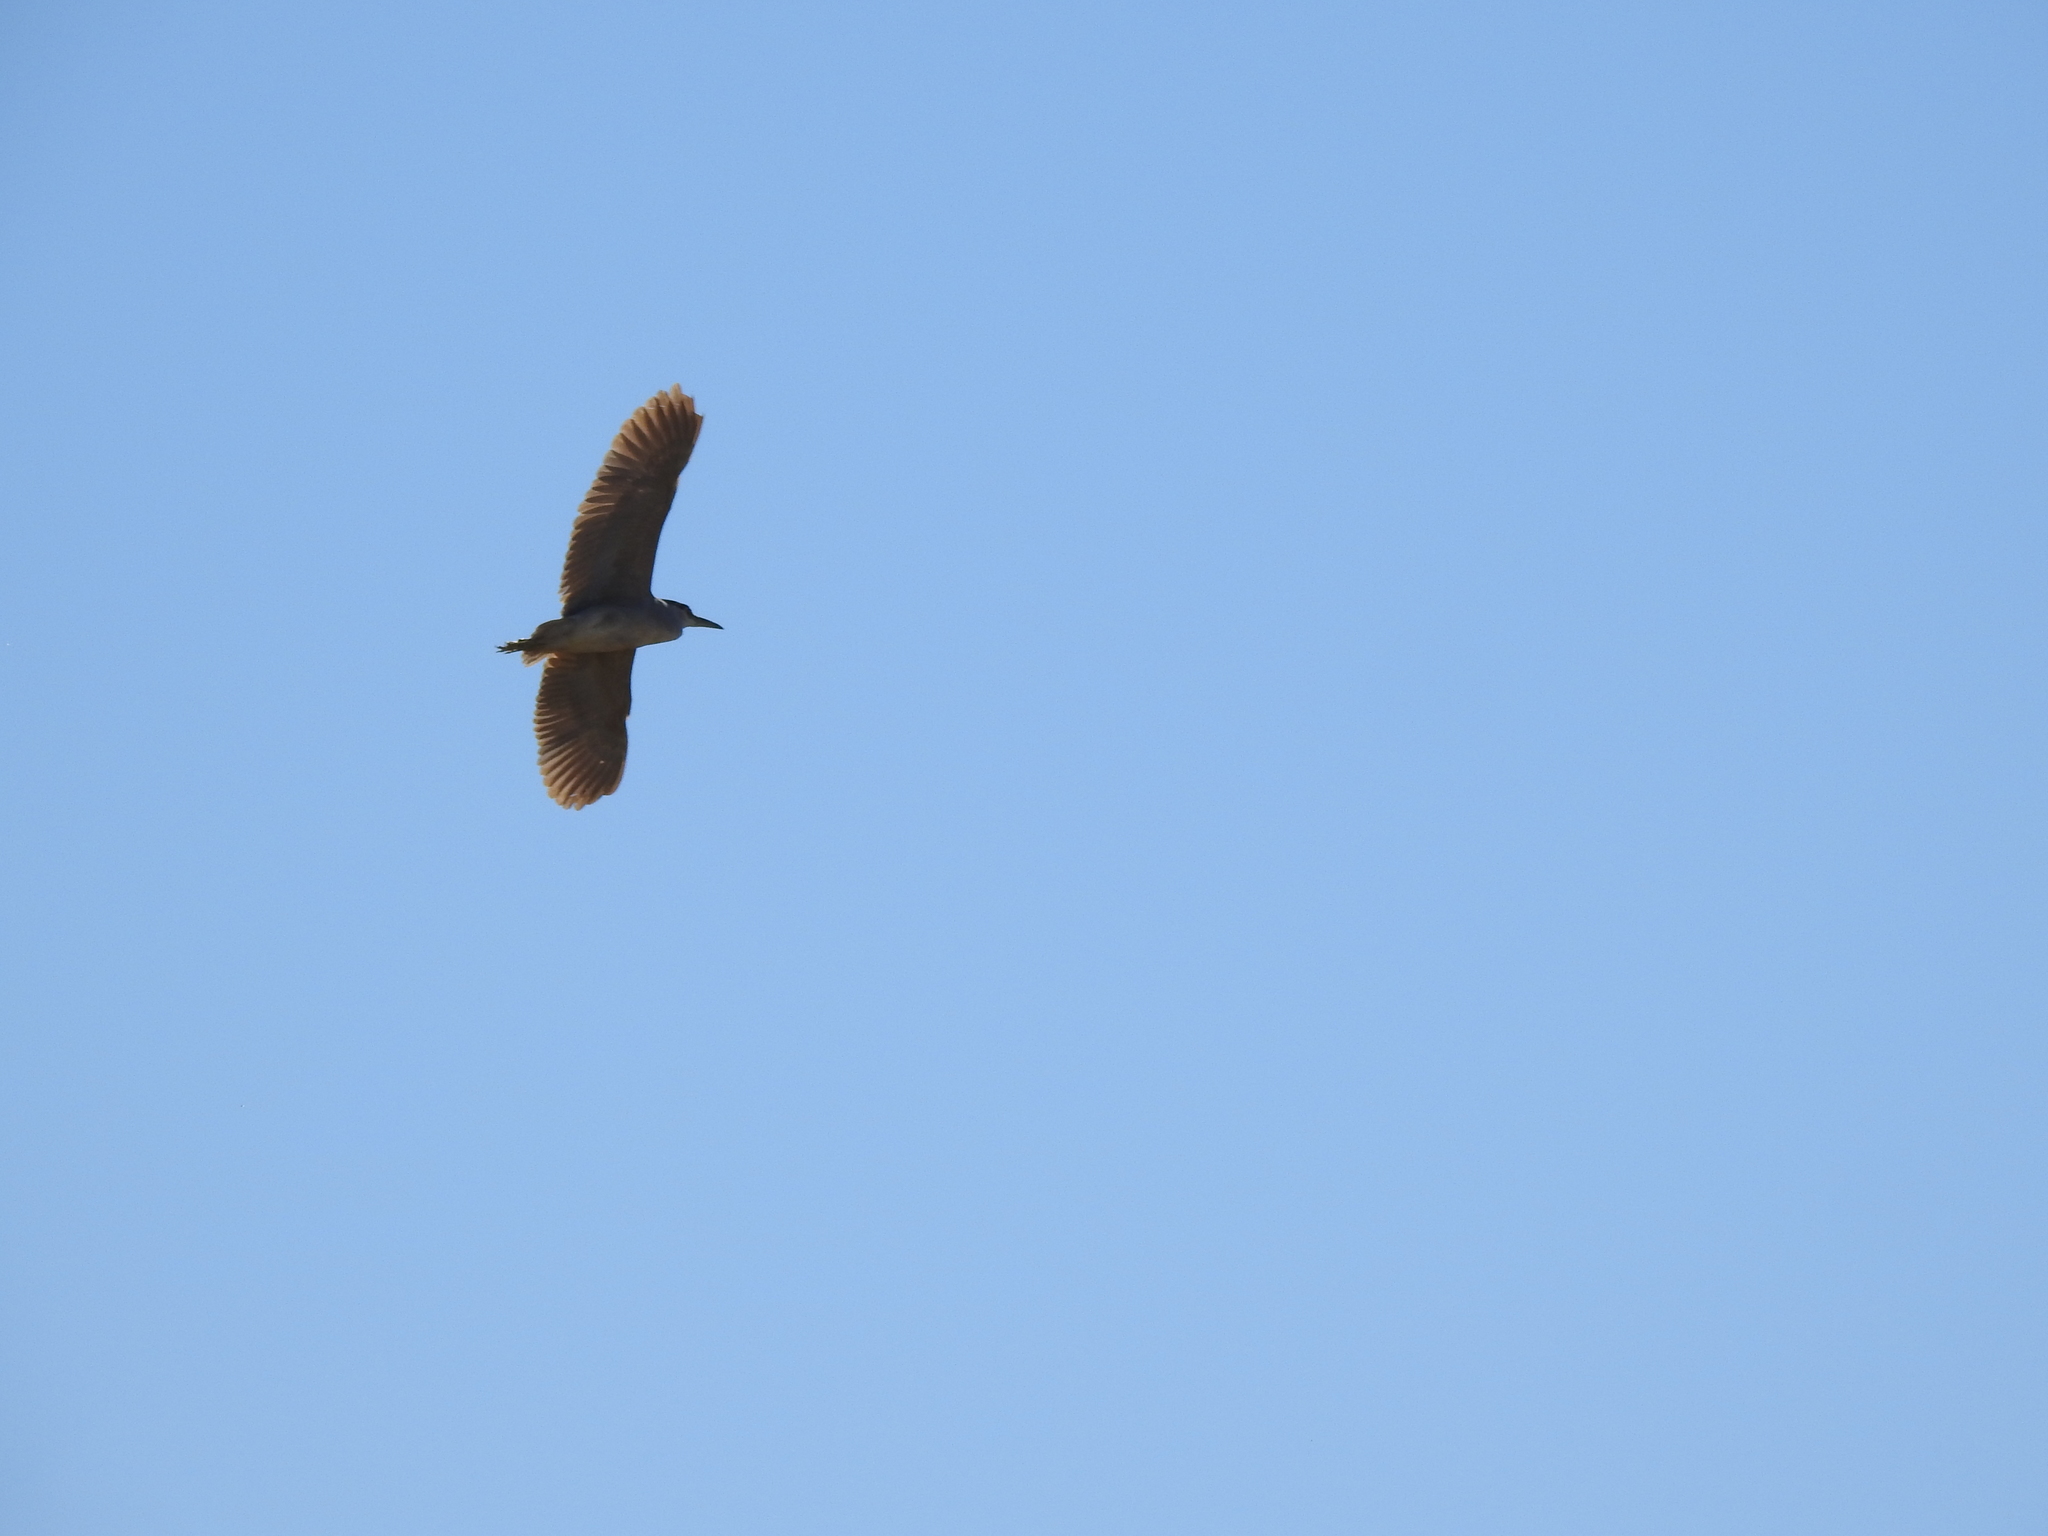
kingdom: Animalia
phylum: Chordata
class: Aves
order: Pelecaniformes
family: Ardeidae
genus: Nycticorax
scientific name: Nycticorax nycticorax
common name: Black-crowned night heron
